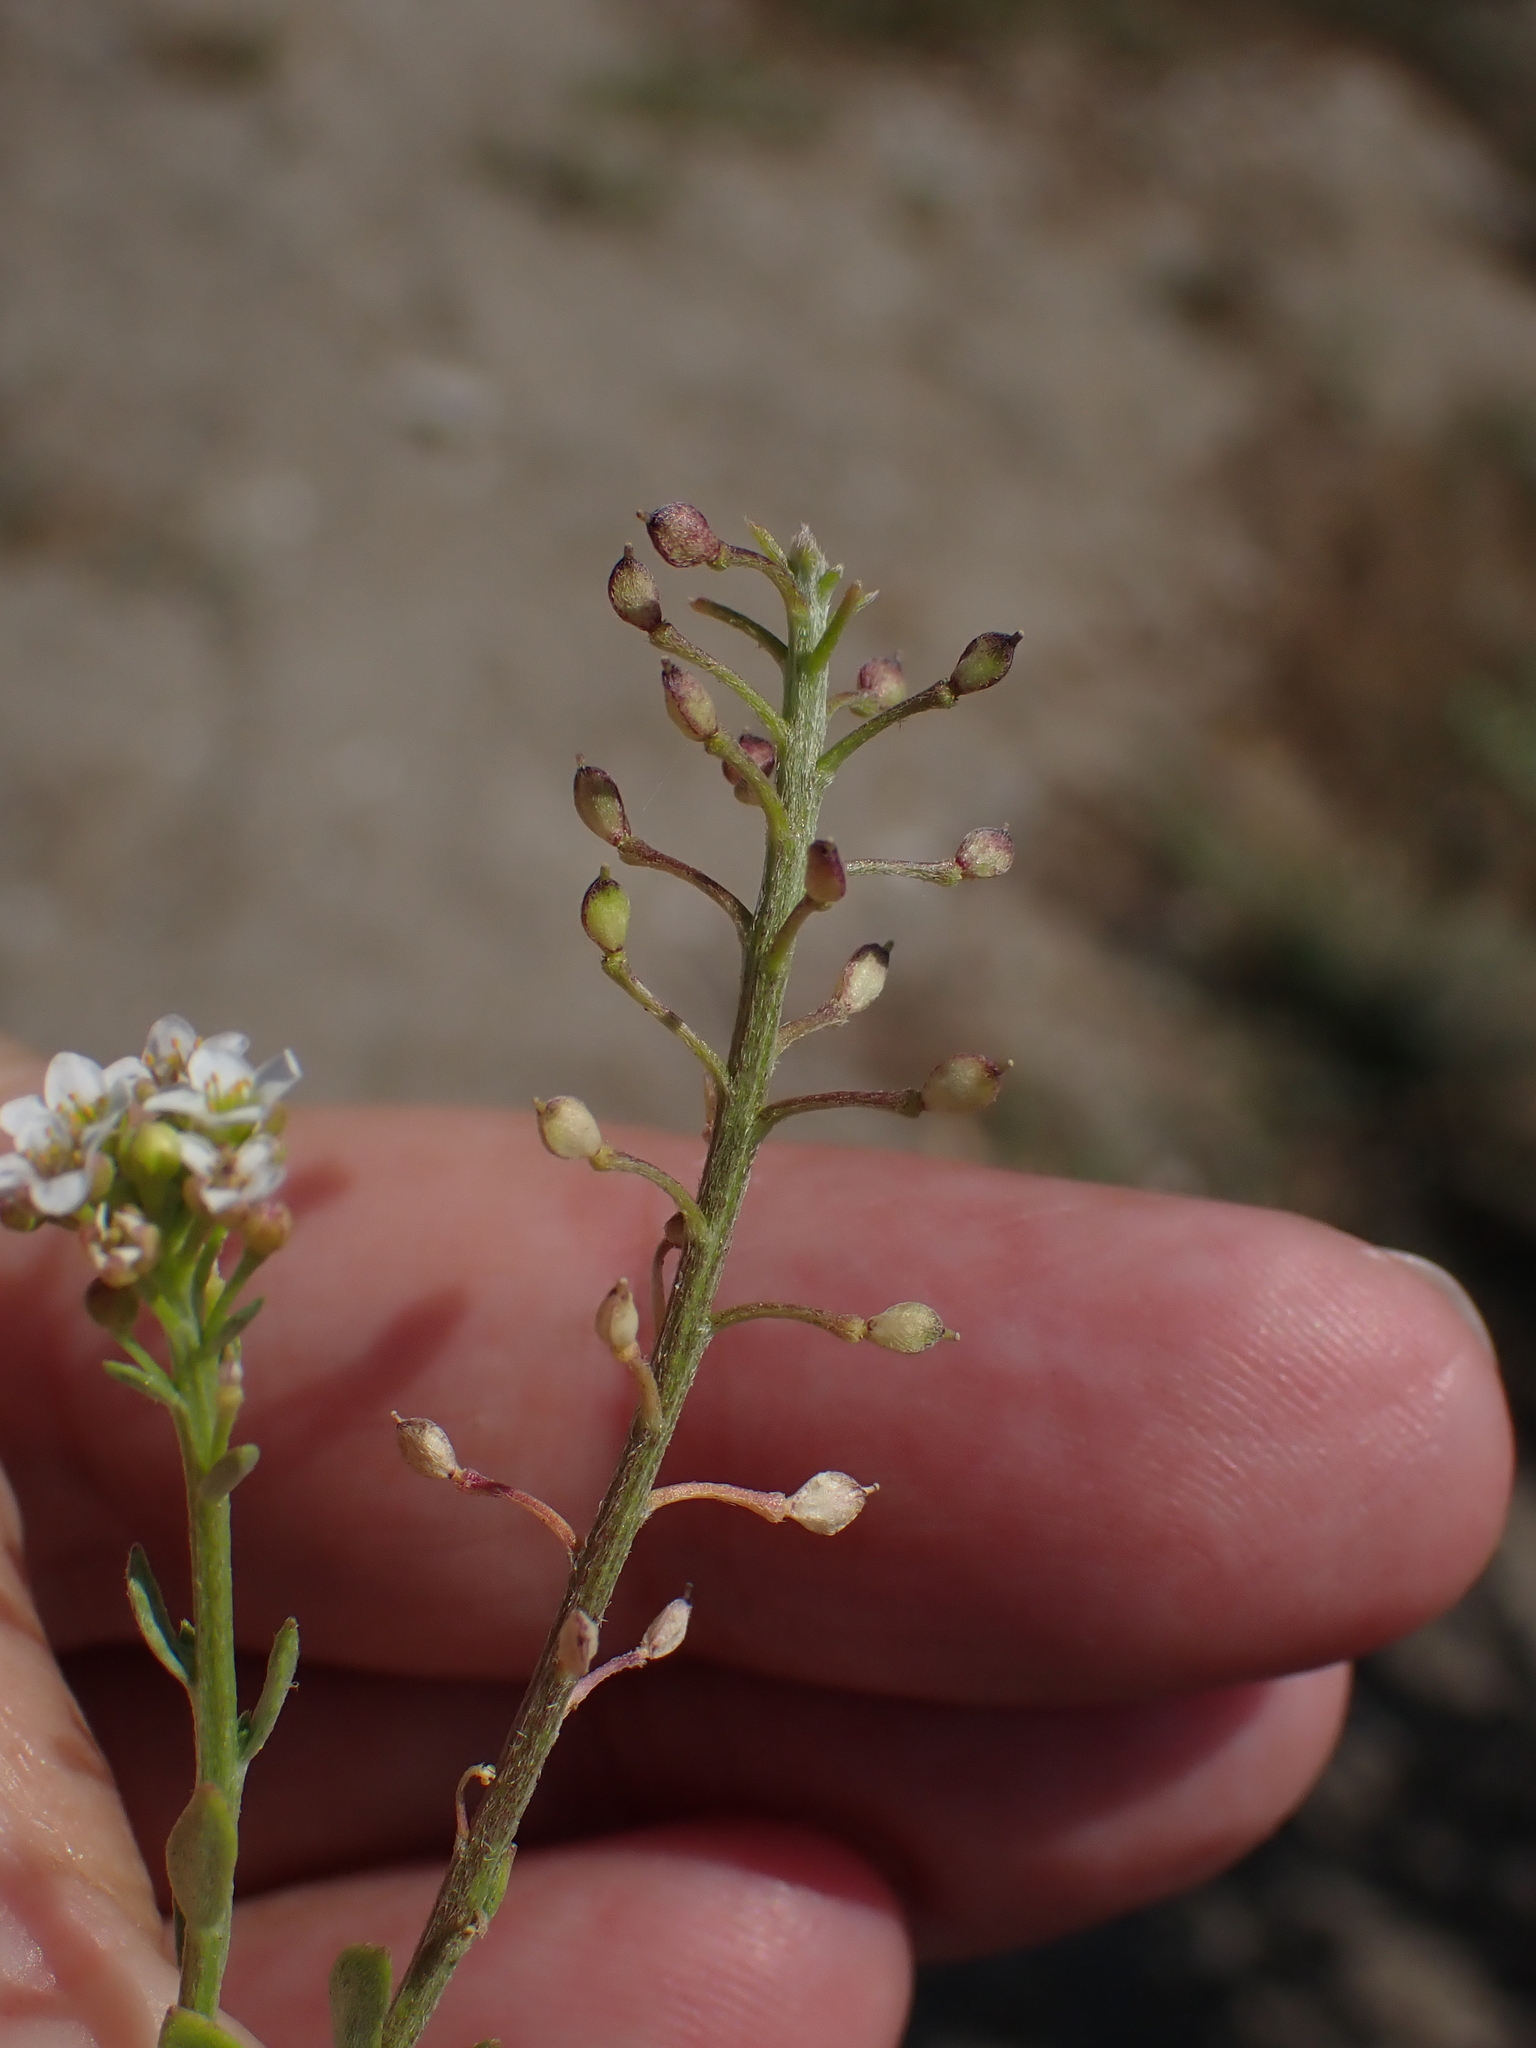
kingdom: Plantae
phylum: Tracheophyta
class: Magnoliopsida
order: Brassicales
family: Brassicaceae
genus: Lobularia
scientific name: Lobularia maritima
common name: Sweet alison
